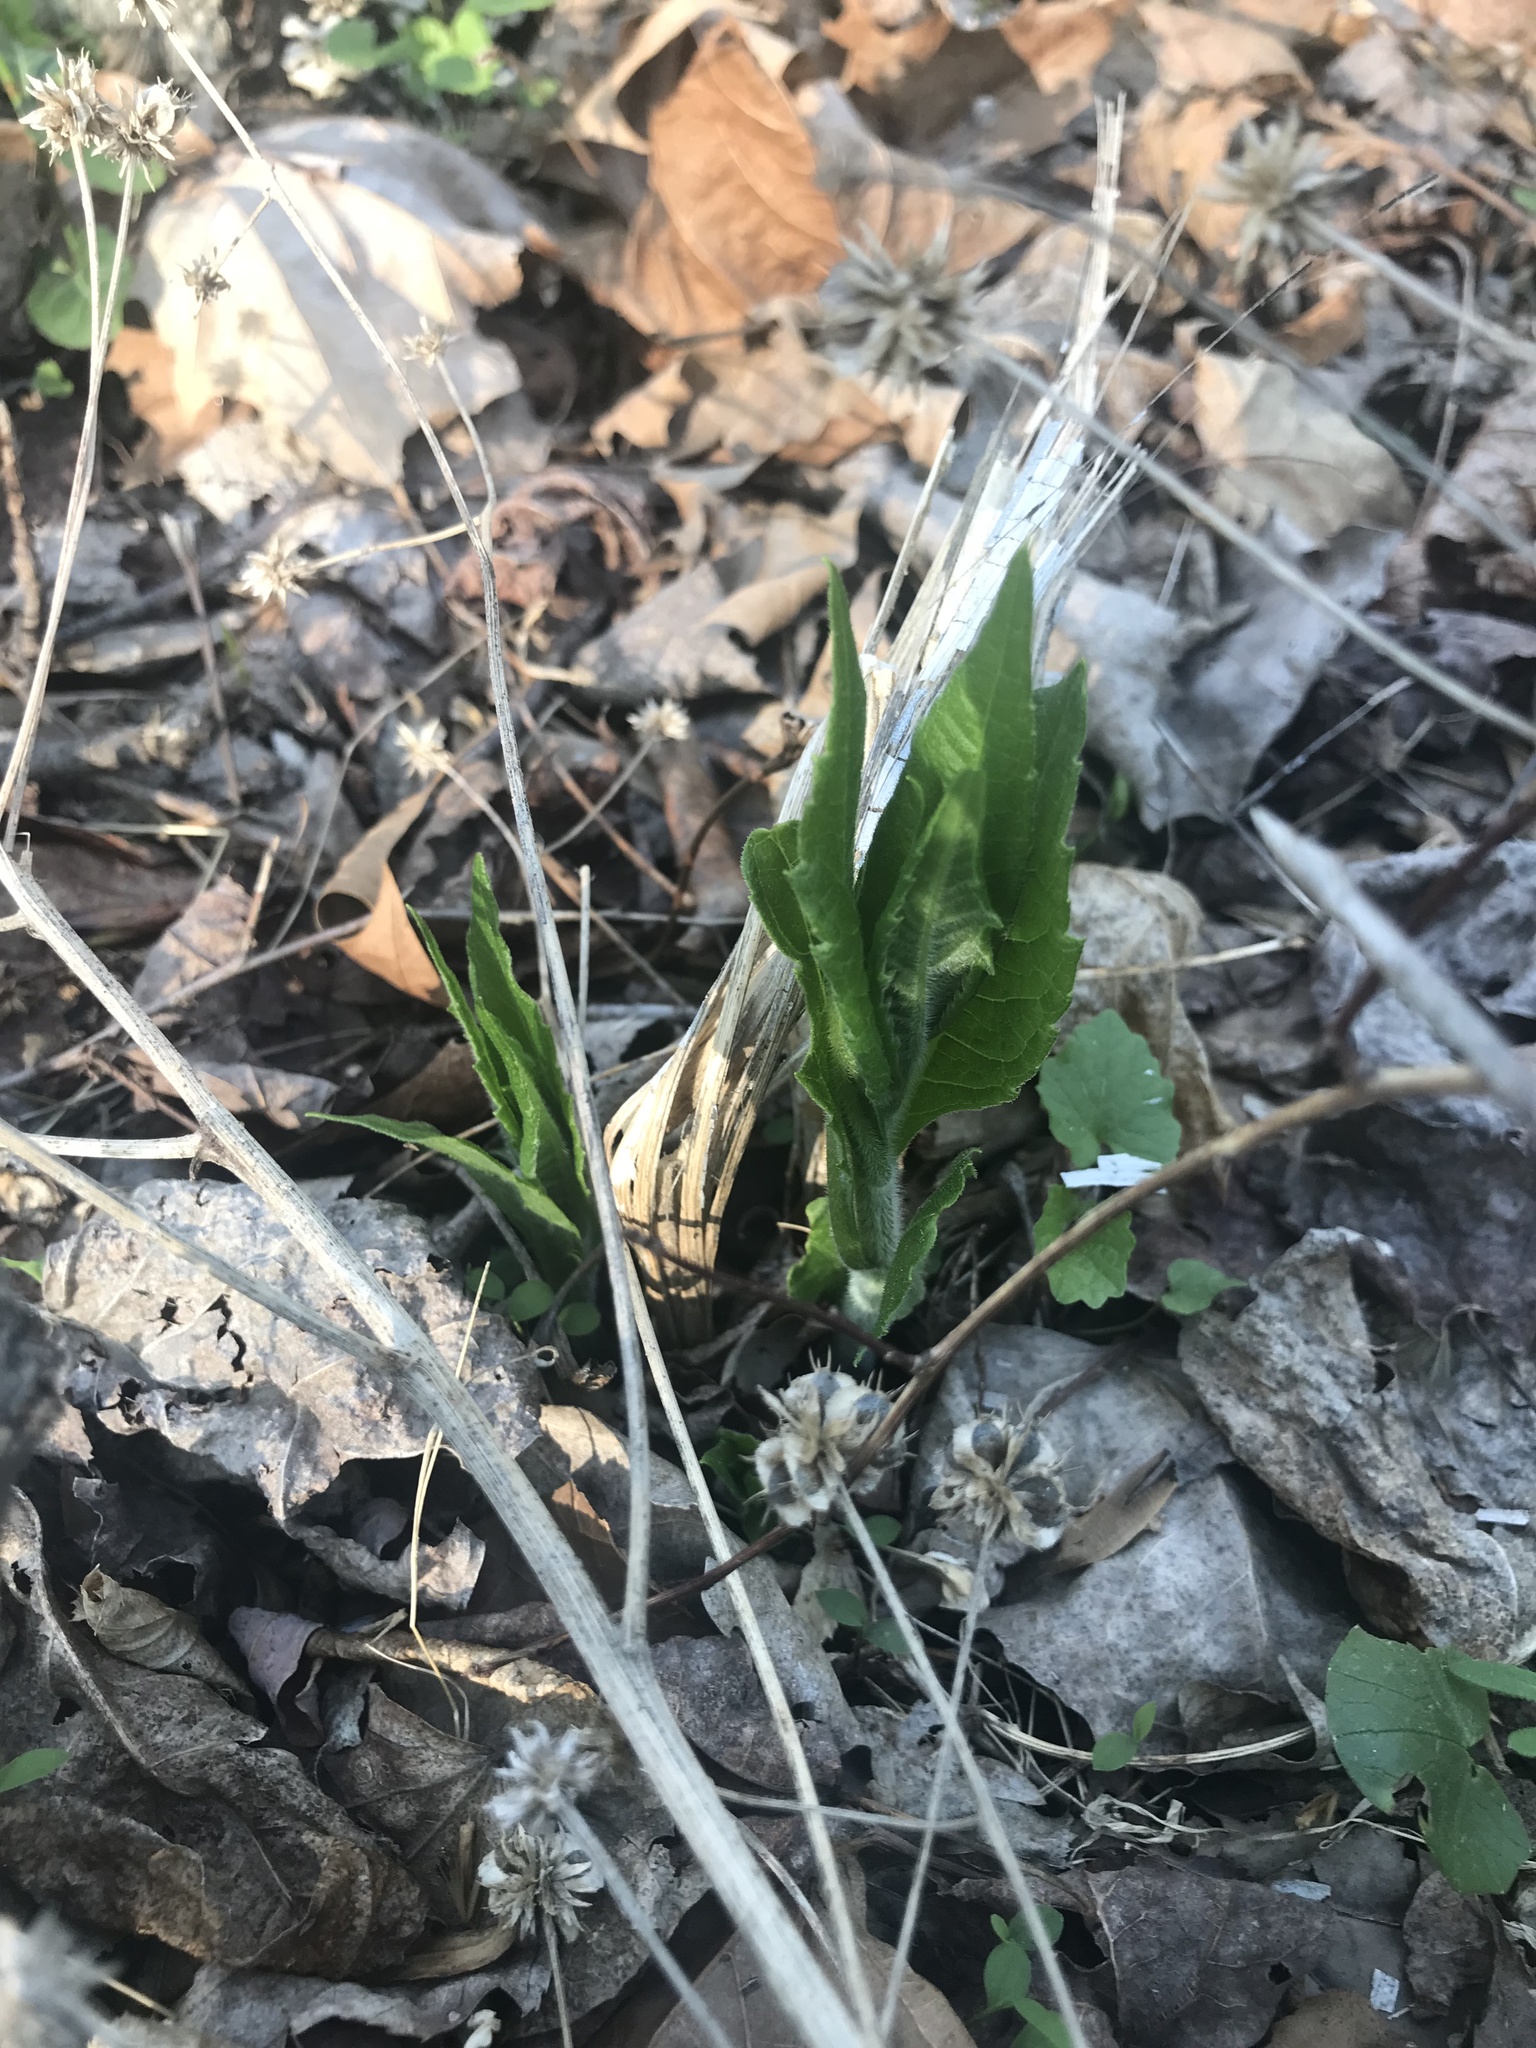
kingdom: Plantae
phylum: Tracheophyta
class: Magnoliopsida
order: Asterales
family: Asteraceae
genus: Verbesina
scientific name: Verbesina alternifolia
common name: Wingstem
